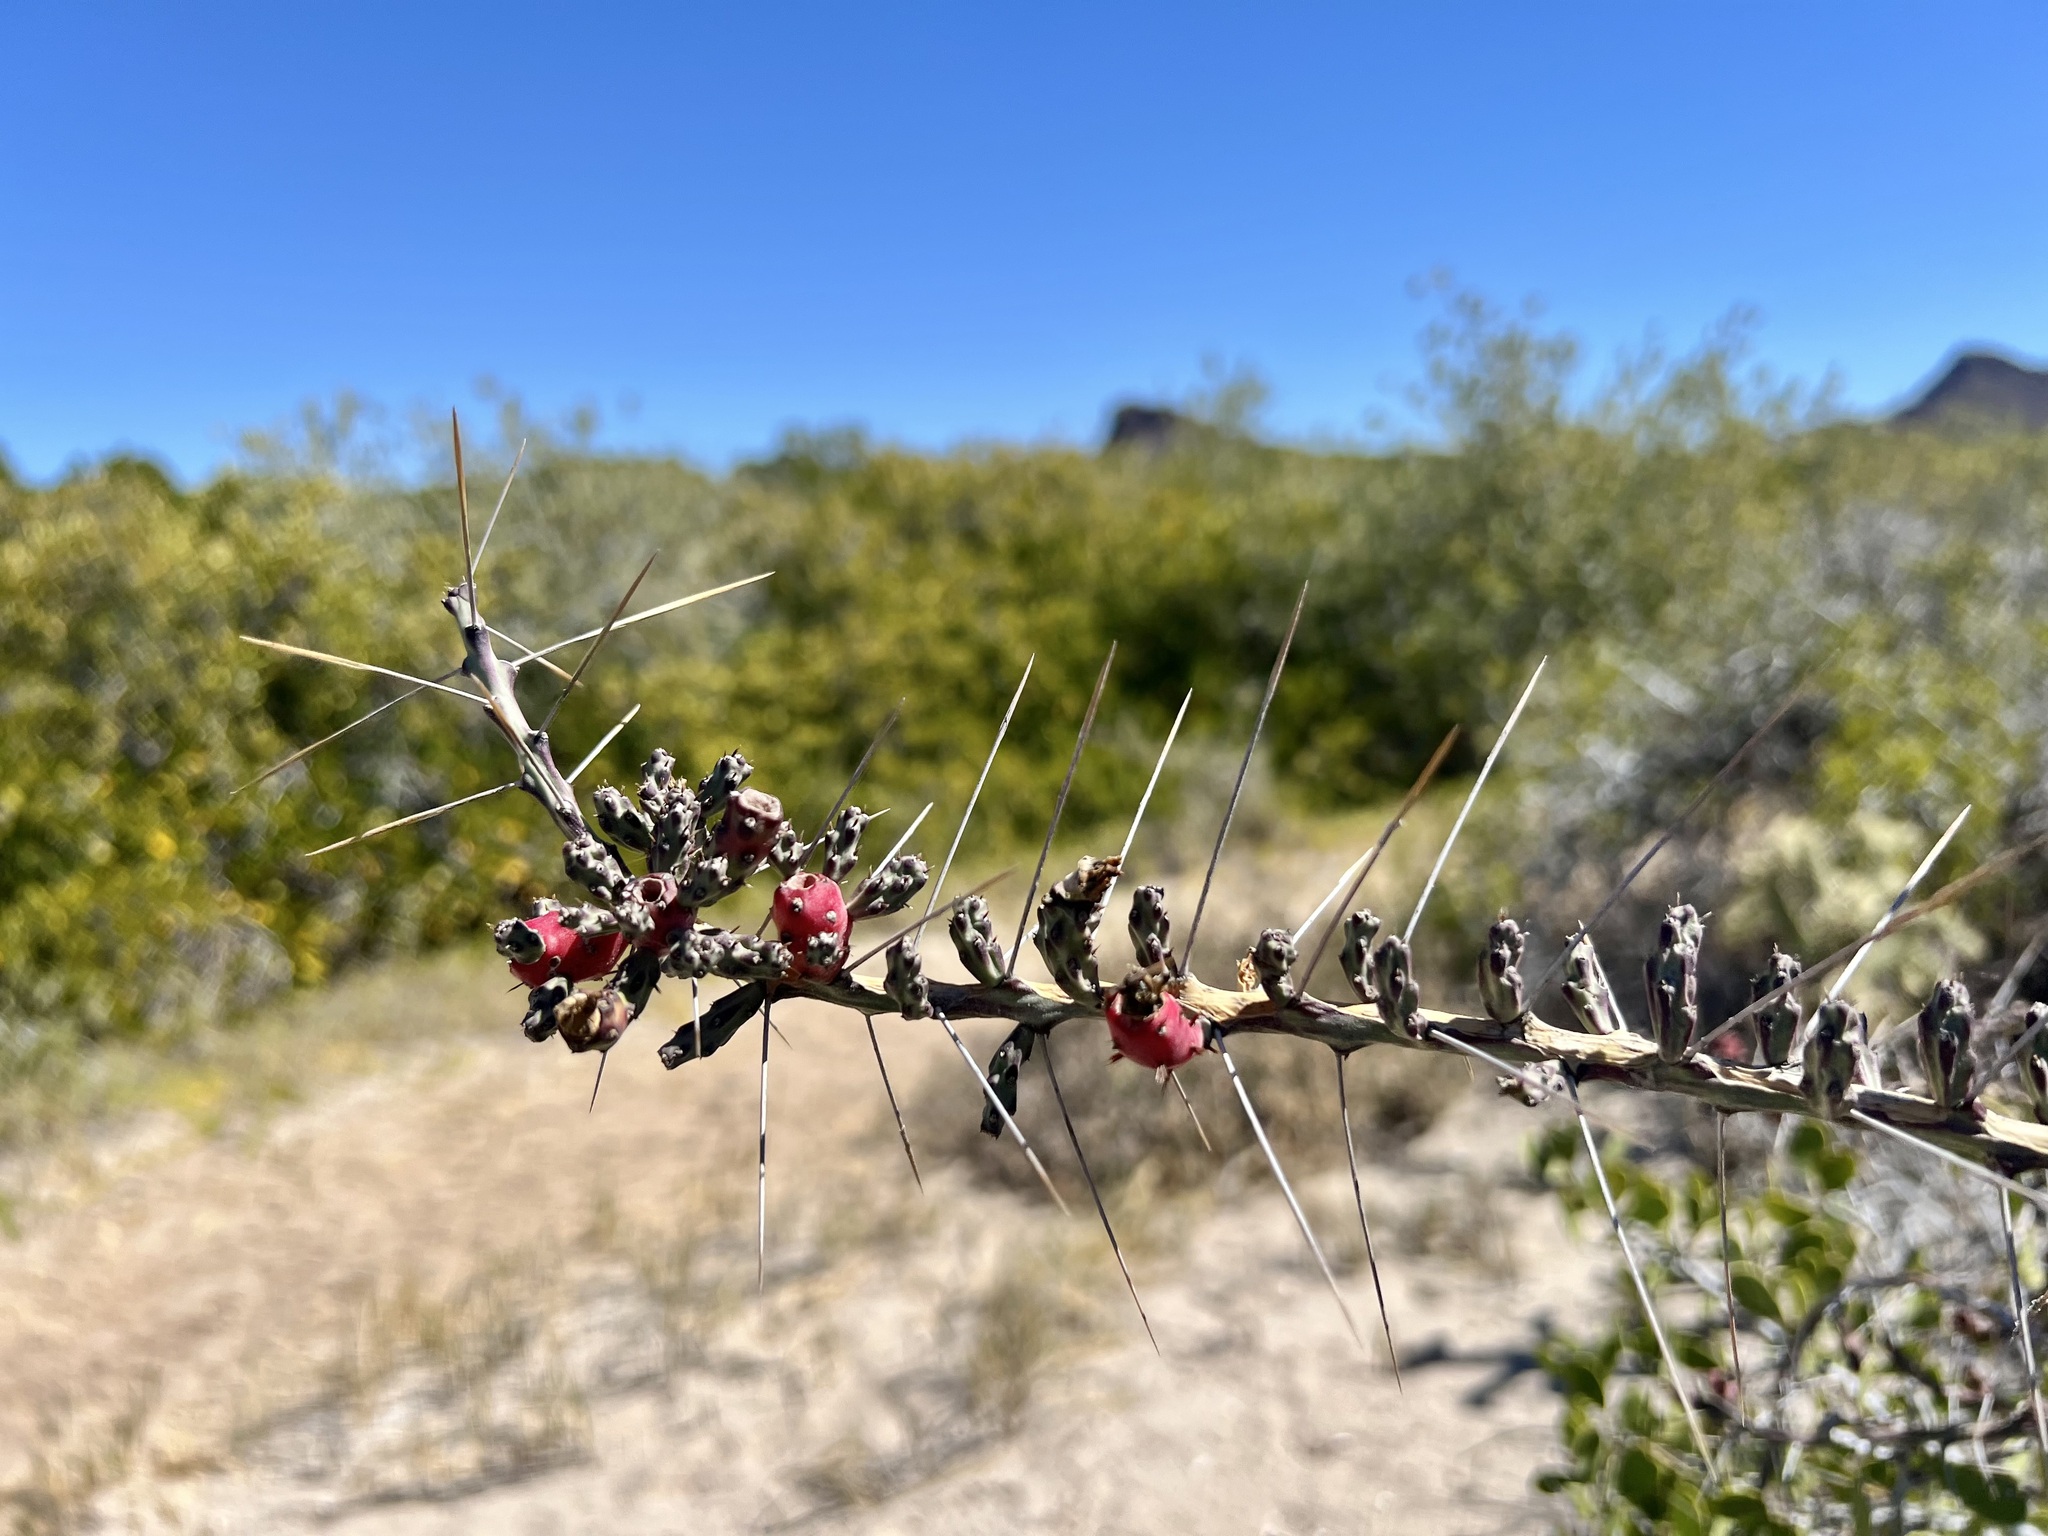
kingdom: Plantae
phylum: Tracheophyta
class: Magnoliopsida
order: Caryophyllales
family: Cactaceae
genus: Cylindropuntia
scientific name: Cylindropuntia leptocaulis
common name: Christmas cactus
